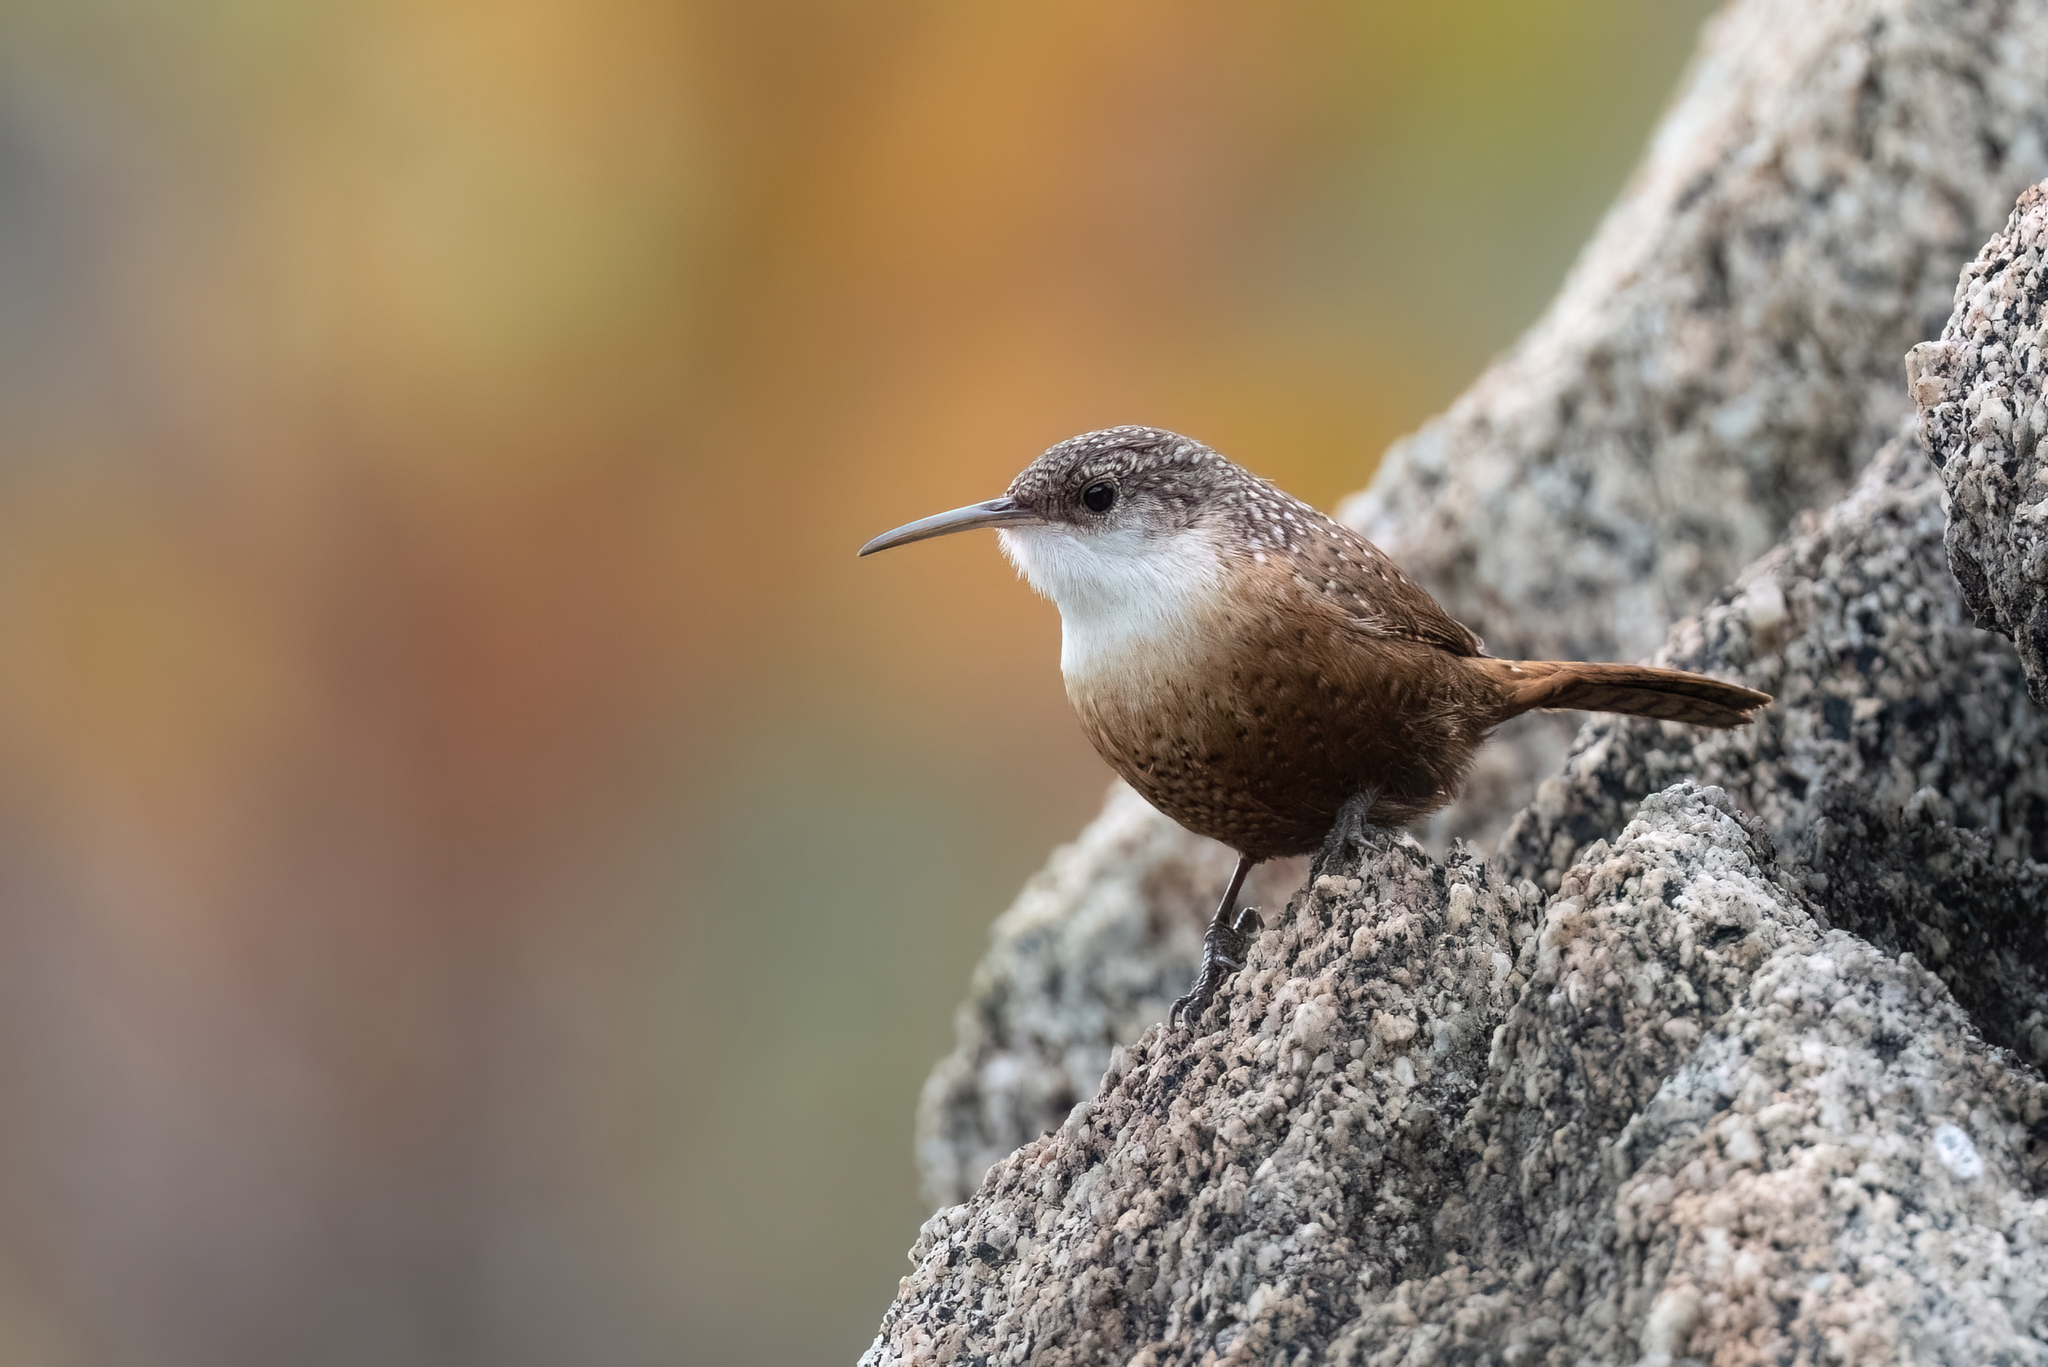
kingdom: Animalia
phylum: Chordata
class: Aves
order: Passeriformes
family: Troglodytidae
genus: Catherpes
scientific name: Catherpes mexicanus
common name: Canyon wren
